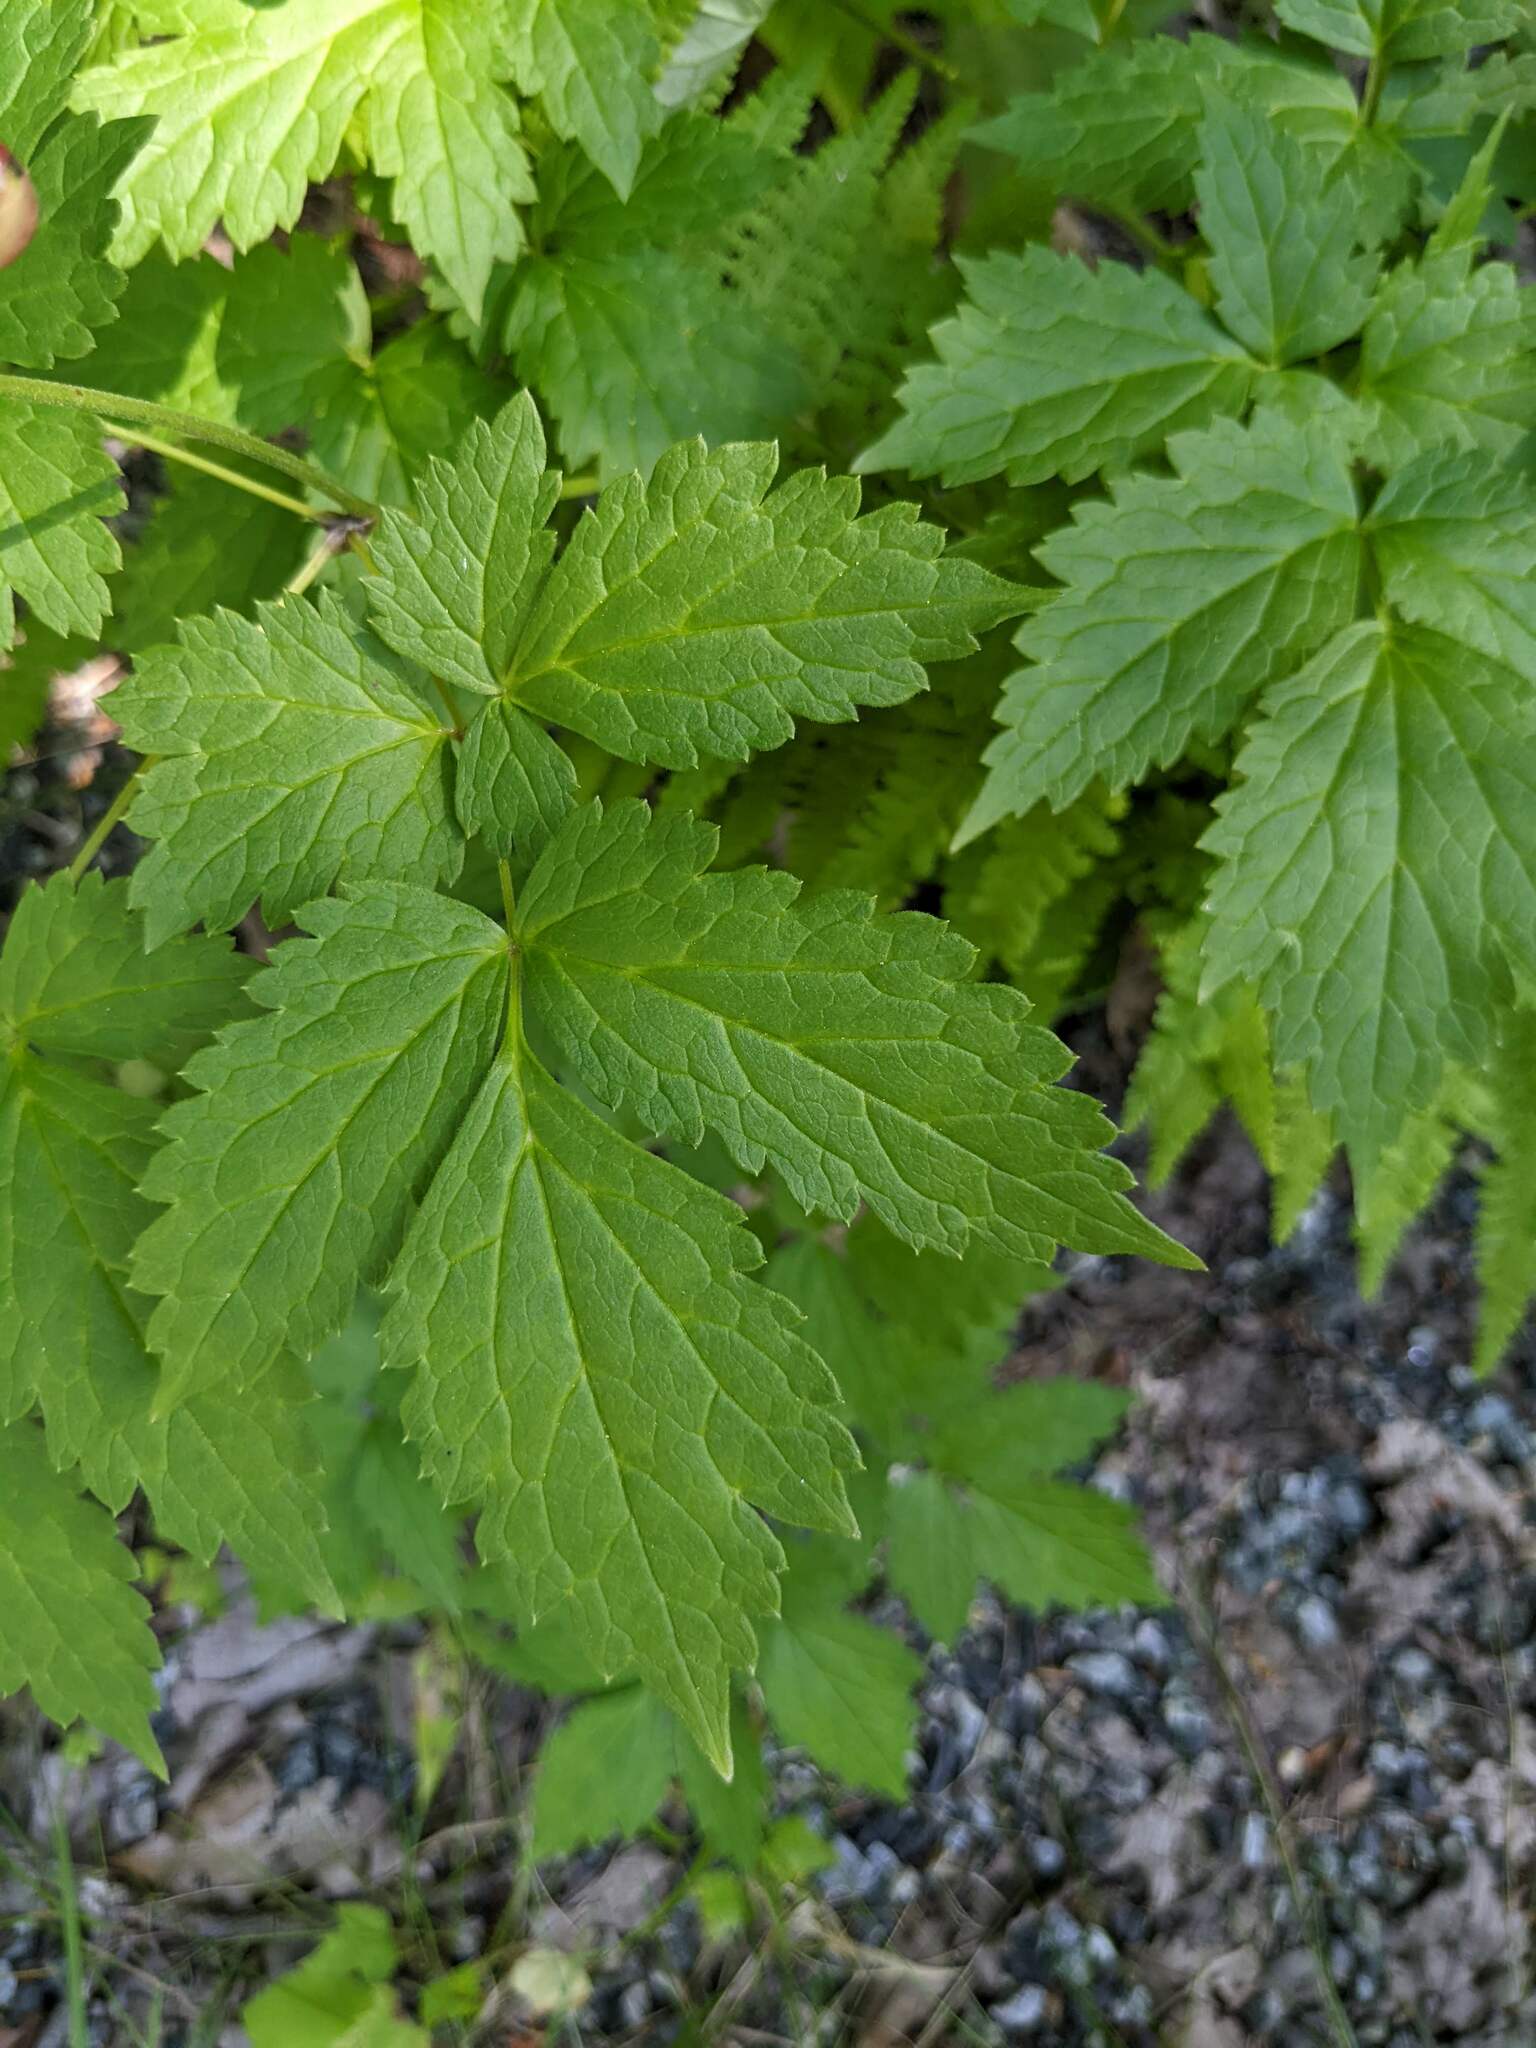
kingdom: Plantae
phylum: Tracheophyta
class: Magnoliopsida
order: Ranunculales
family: Ranunculaceae
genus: Actaea
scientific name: Actaea rubra
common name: Red baneberry
